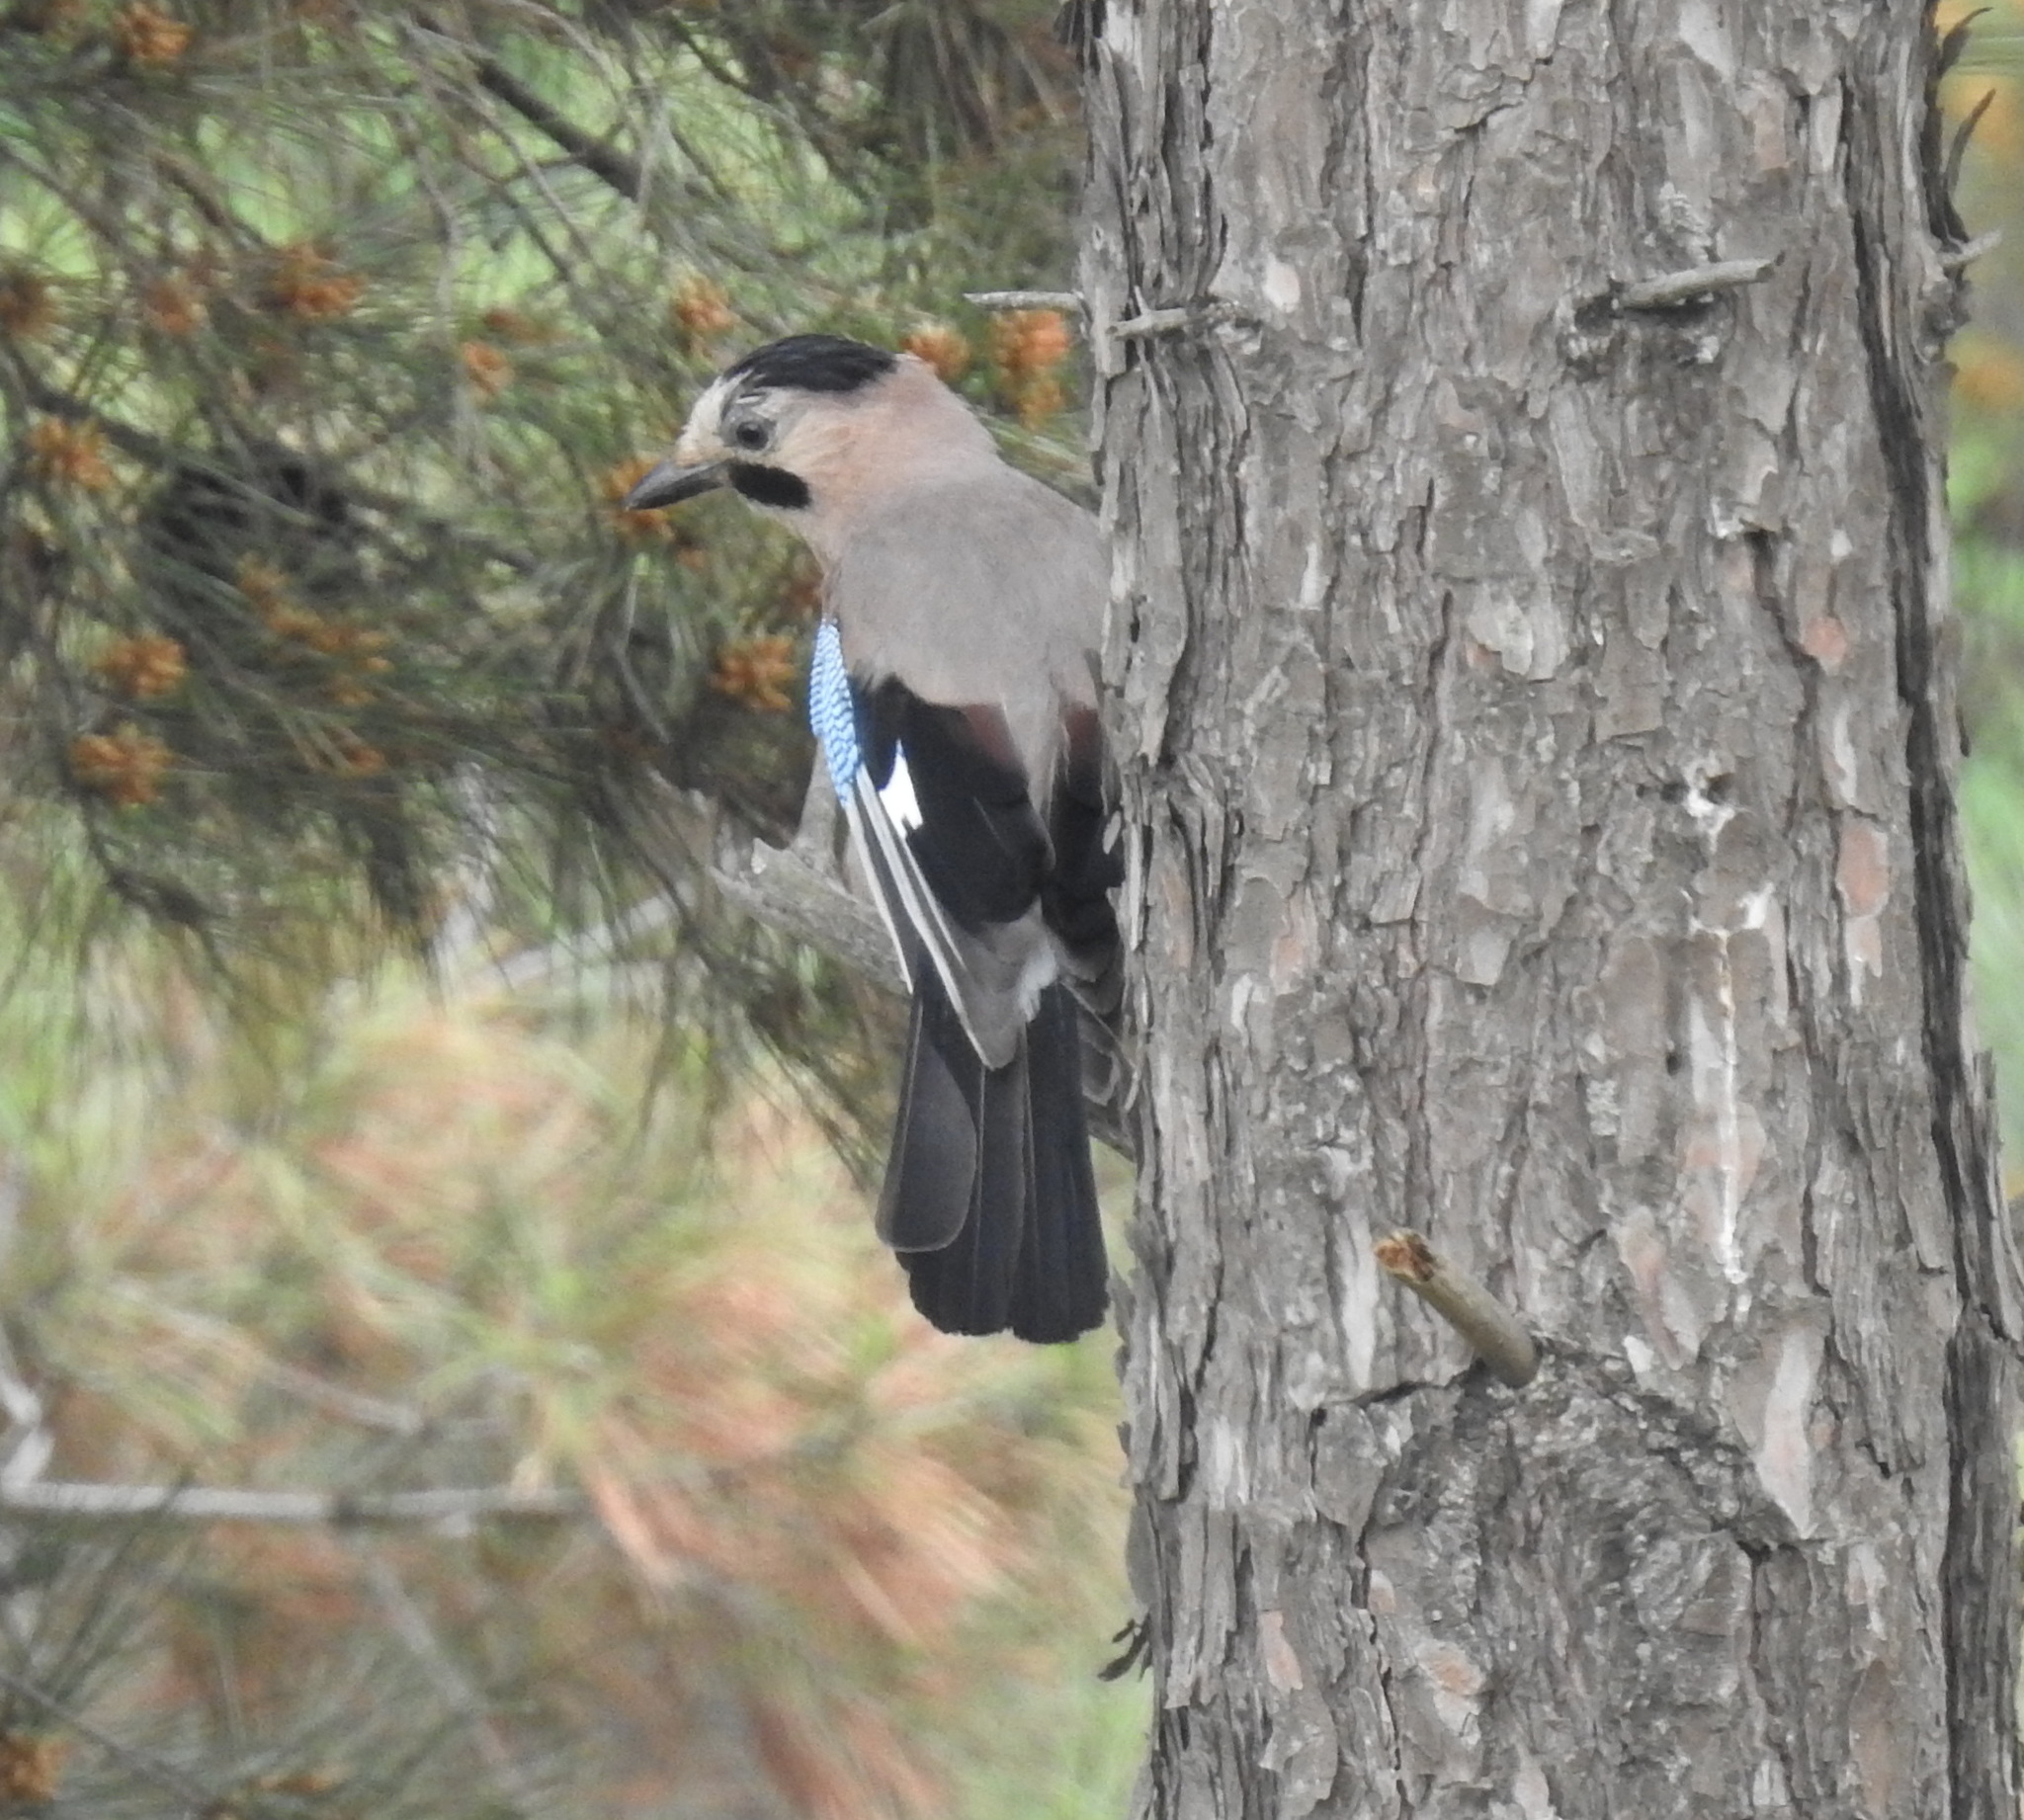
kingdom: Animalia
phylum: Chordata
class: Aves
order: Passeriformes
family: Corvidae
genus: Garrulus
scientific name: Garrulus glandarius
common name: Eurasian jay
